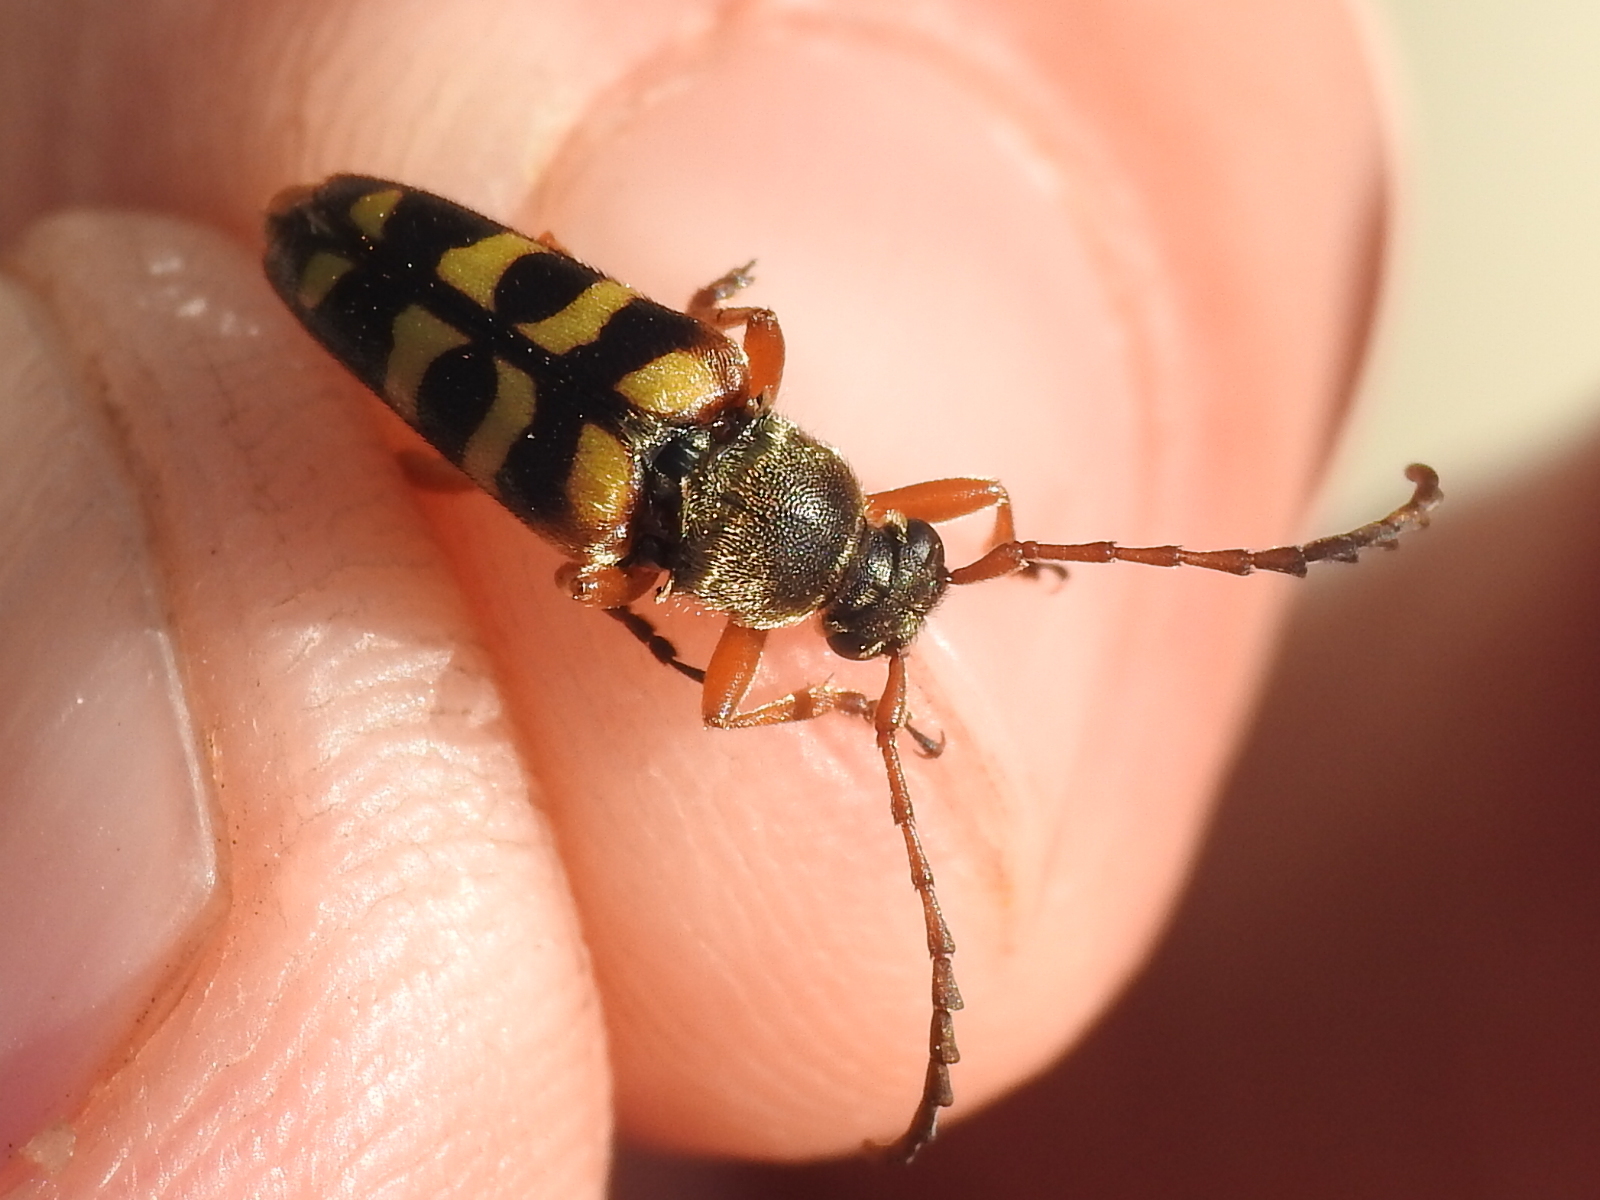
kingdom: Animalia
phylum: Arthropoda
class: Insecta
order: Coleoptera
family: Cerambycidae
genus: Typocerus
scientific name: Typocerus sinuatus
